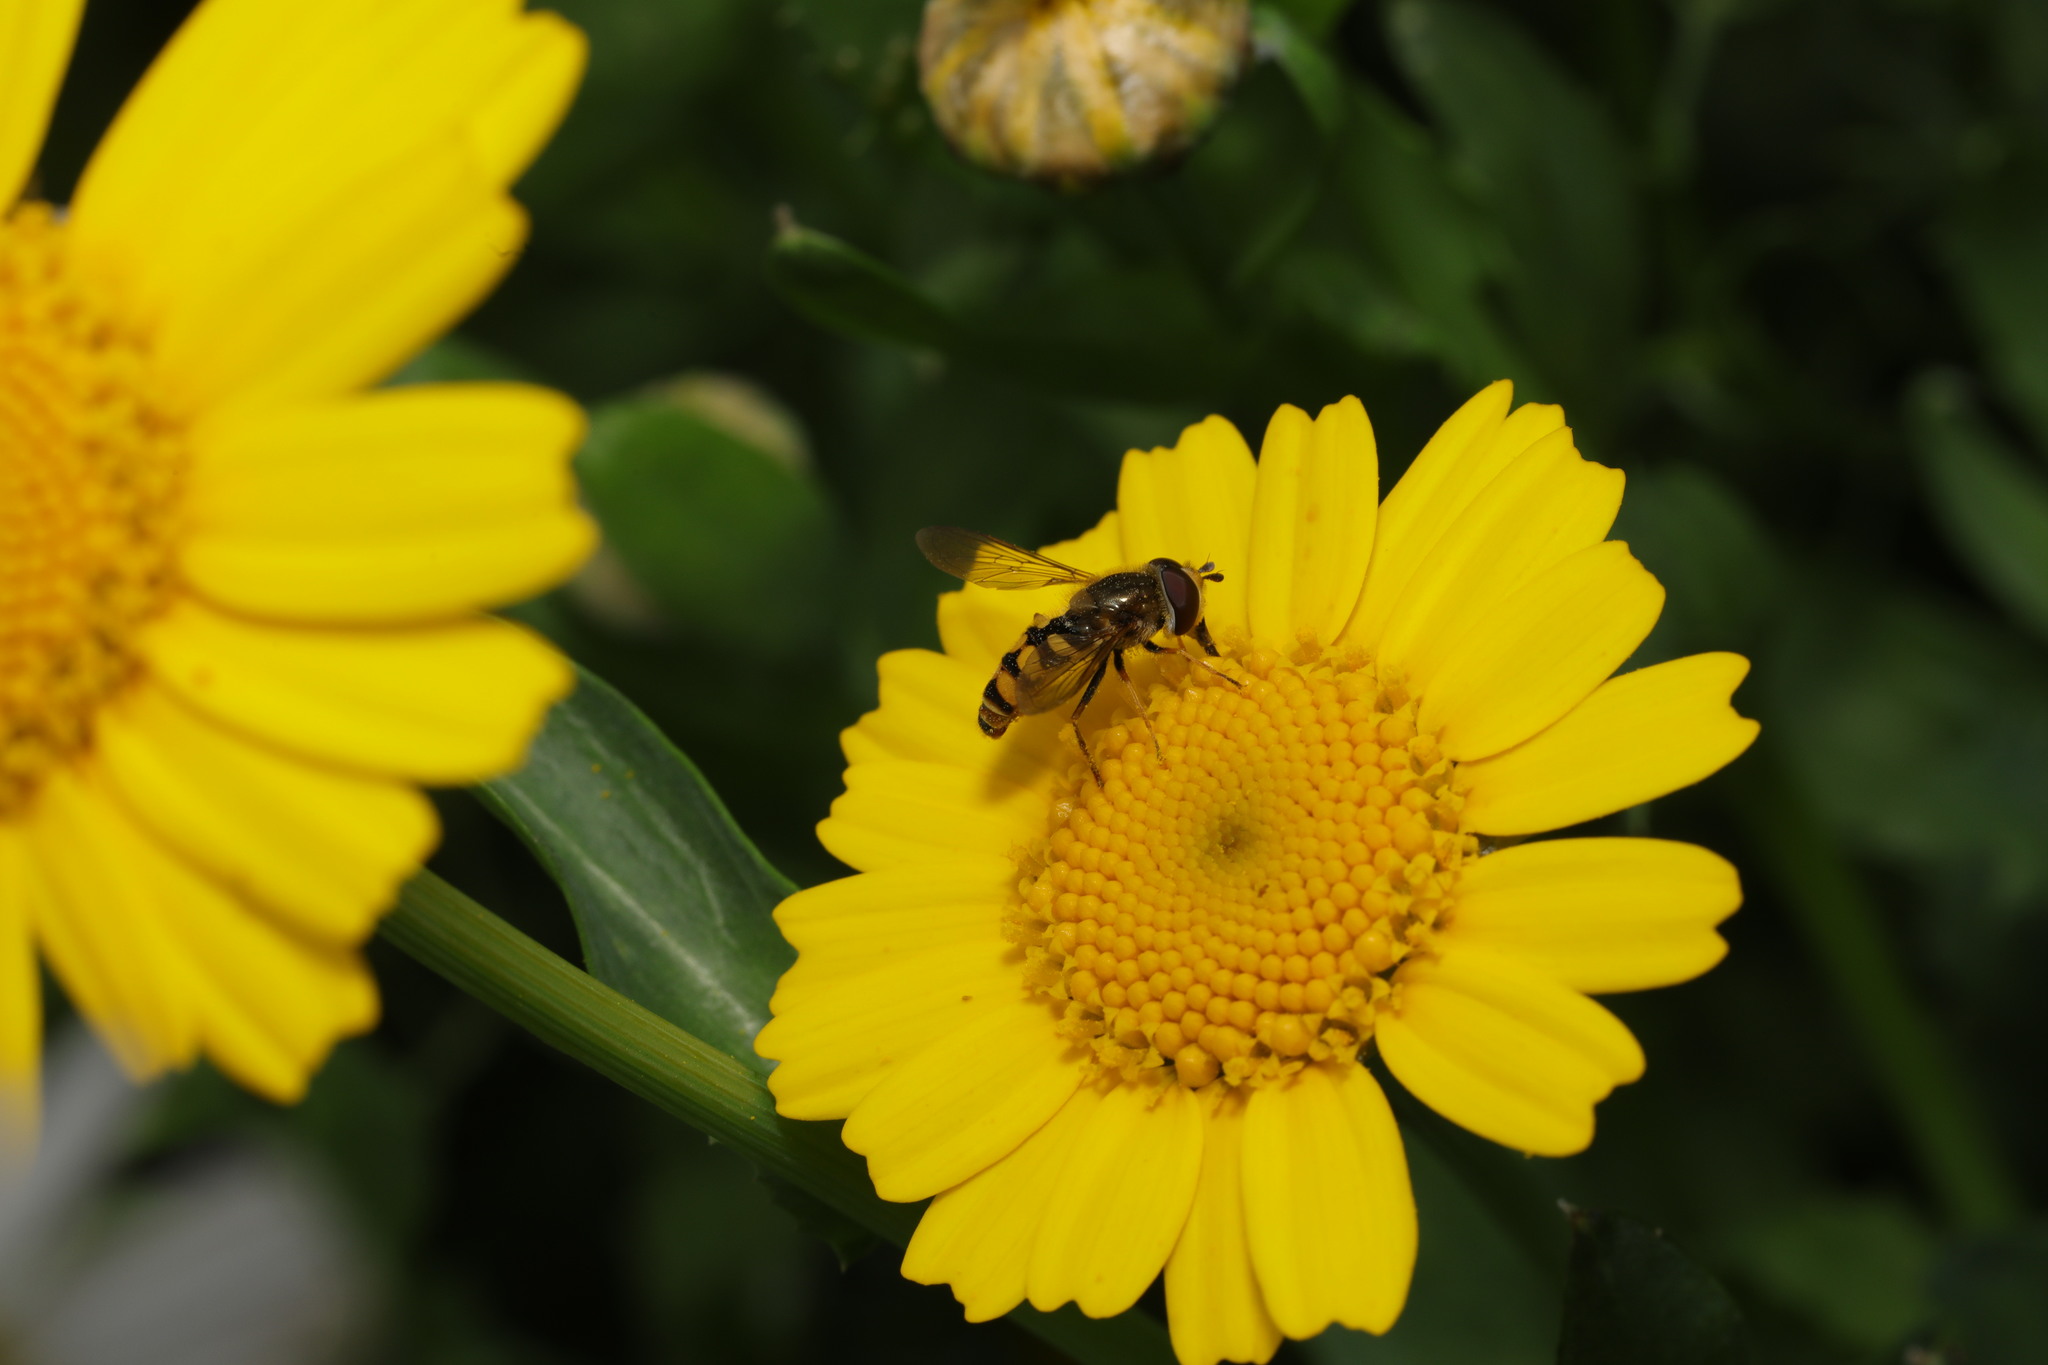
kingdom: Animalia
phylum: Arthropoda
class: Insecta
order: Diptera
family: Syrphidae
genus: Eupeodes
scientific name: Eupeodes corollae
